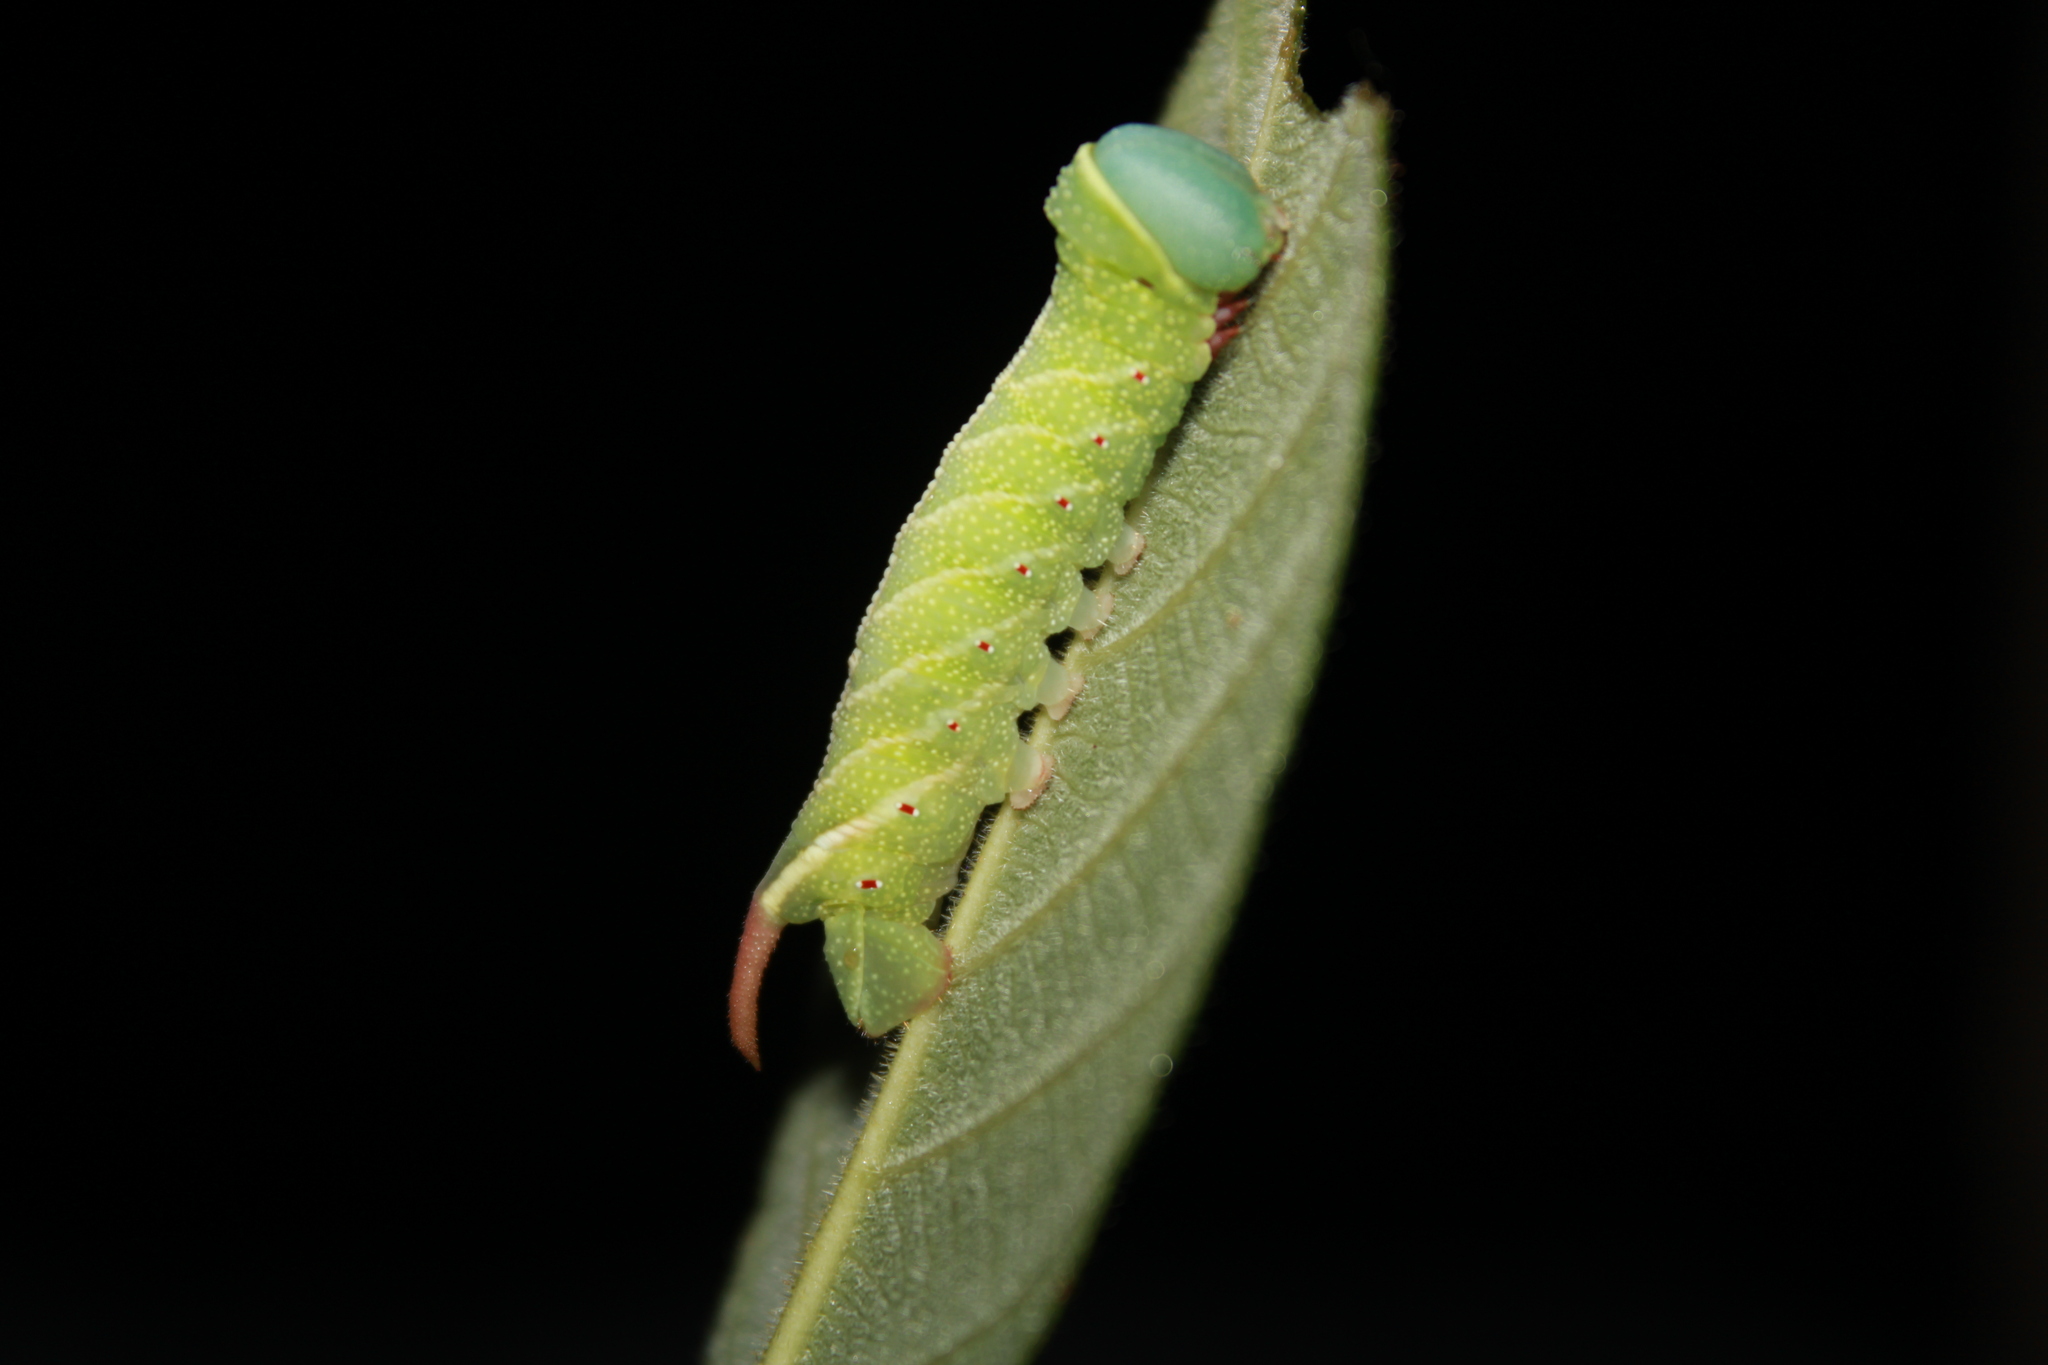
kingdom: Animalia
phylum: Arthropoda
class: Insecta
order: Lepidoptera
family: Sphingidae
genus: Perigonia
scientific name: Perigonia lusca
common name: Half-blind sphinx
